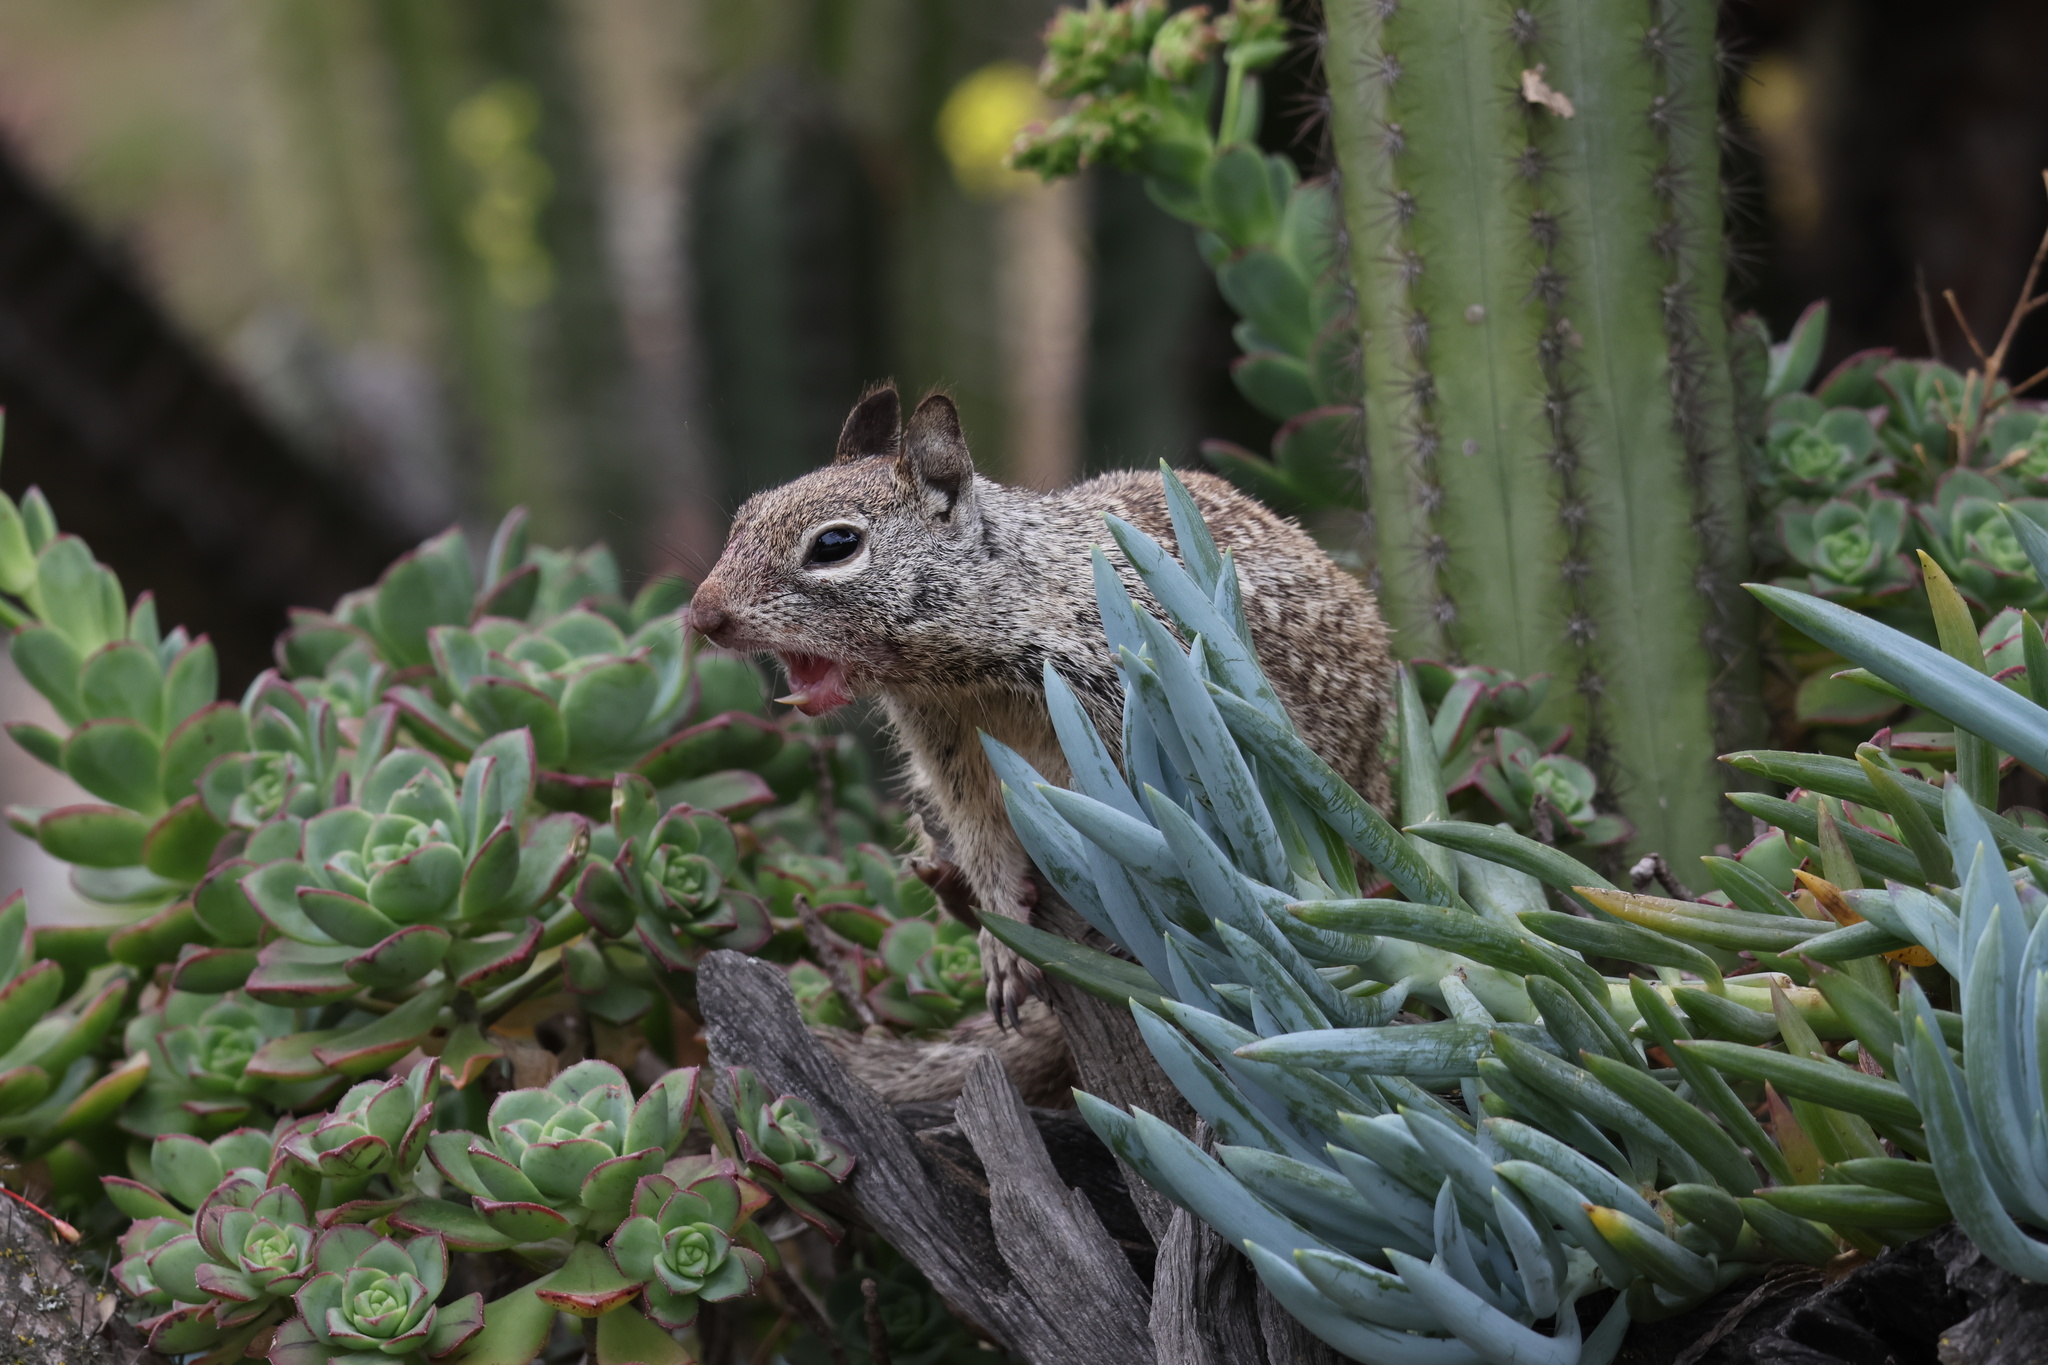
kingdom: Animalia
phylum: Chordata
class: Mammalia
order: Rodentia
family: Sciuridae
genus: Otospermophilus
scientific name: Otospermophilus beecheyi
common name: California ground squirrel
